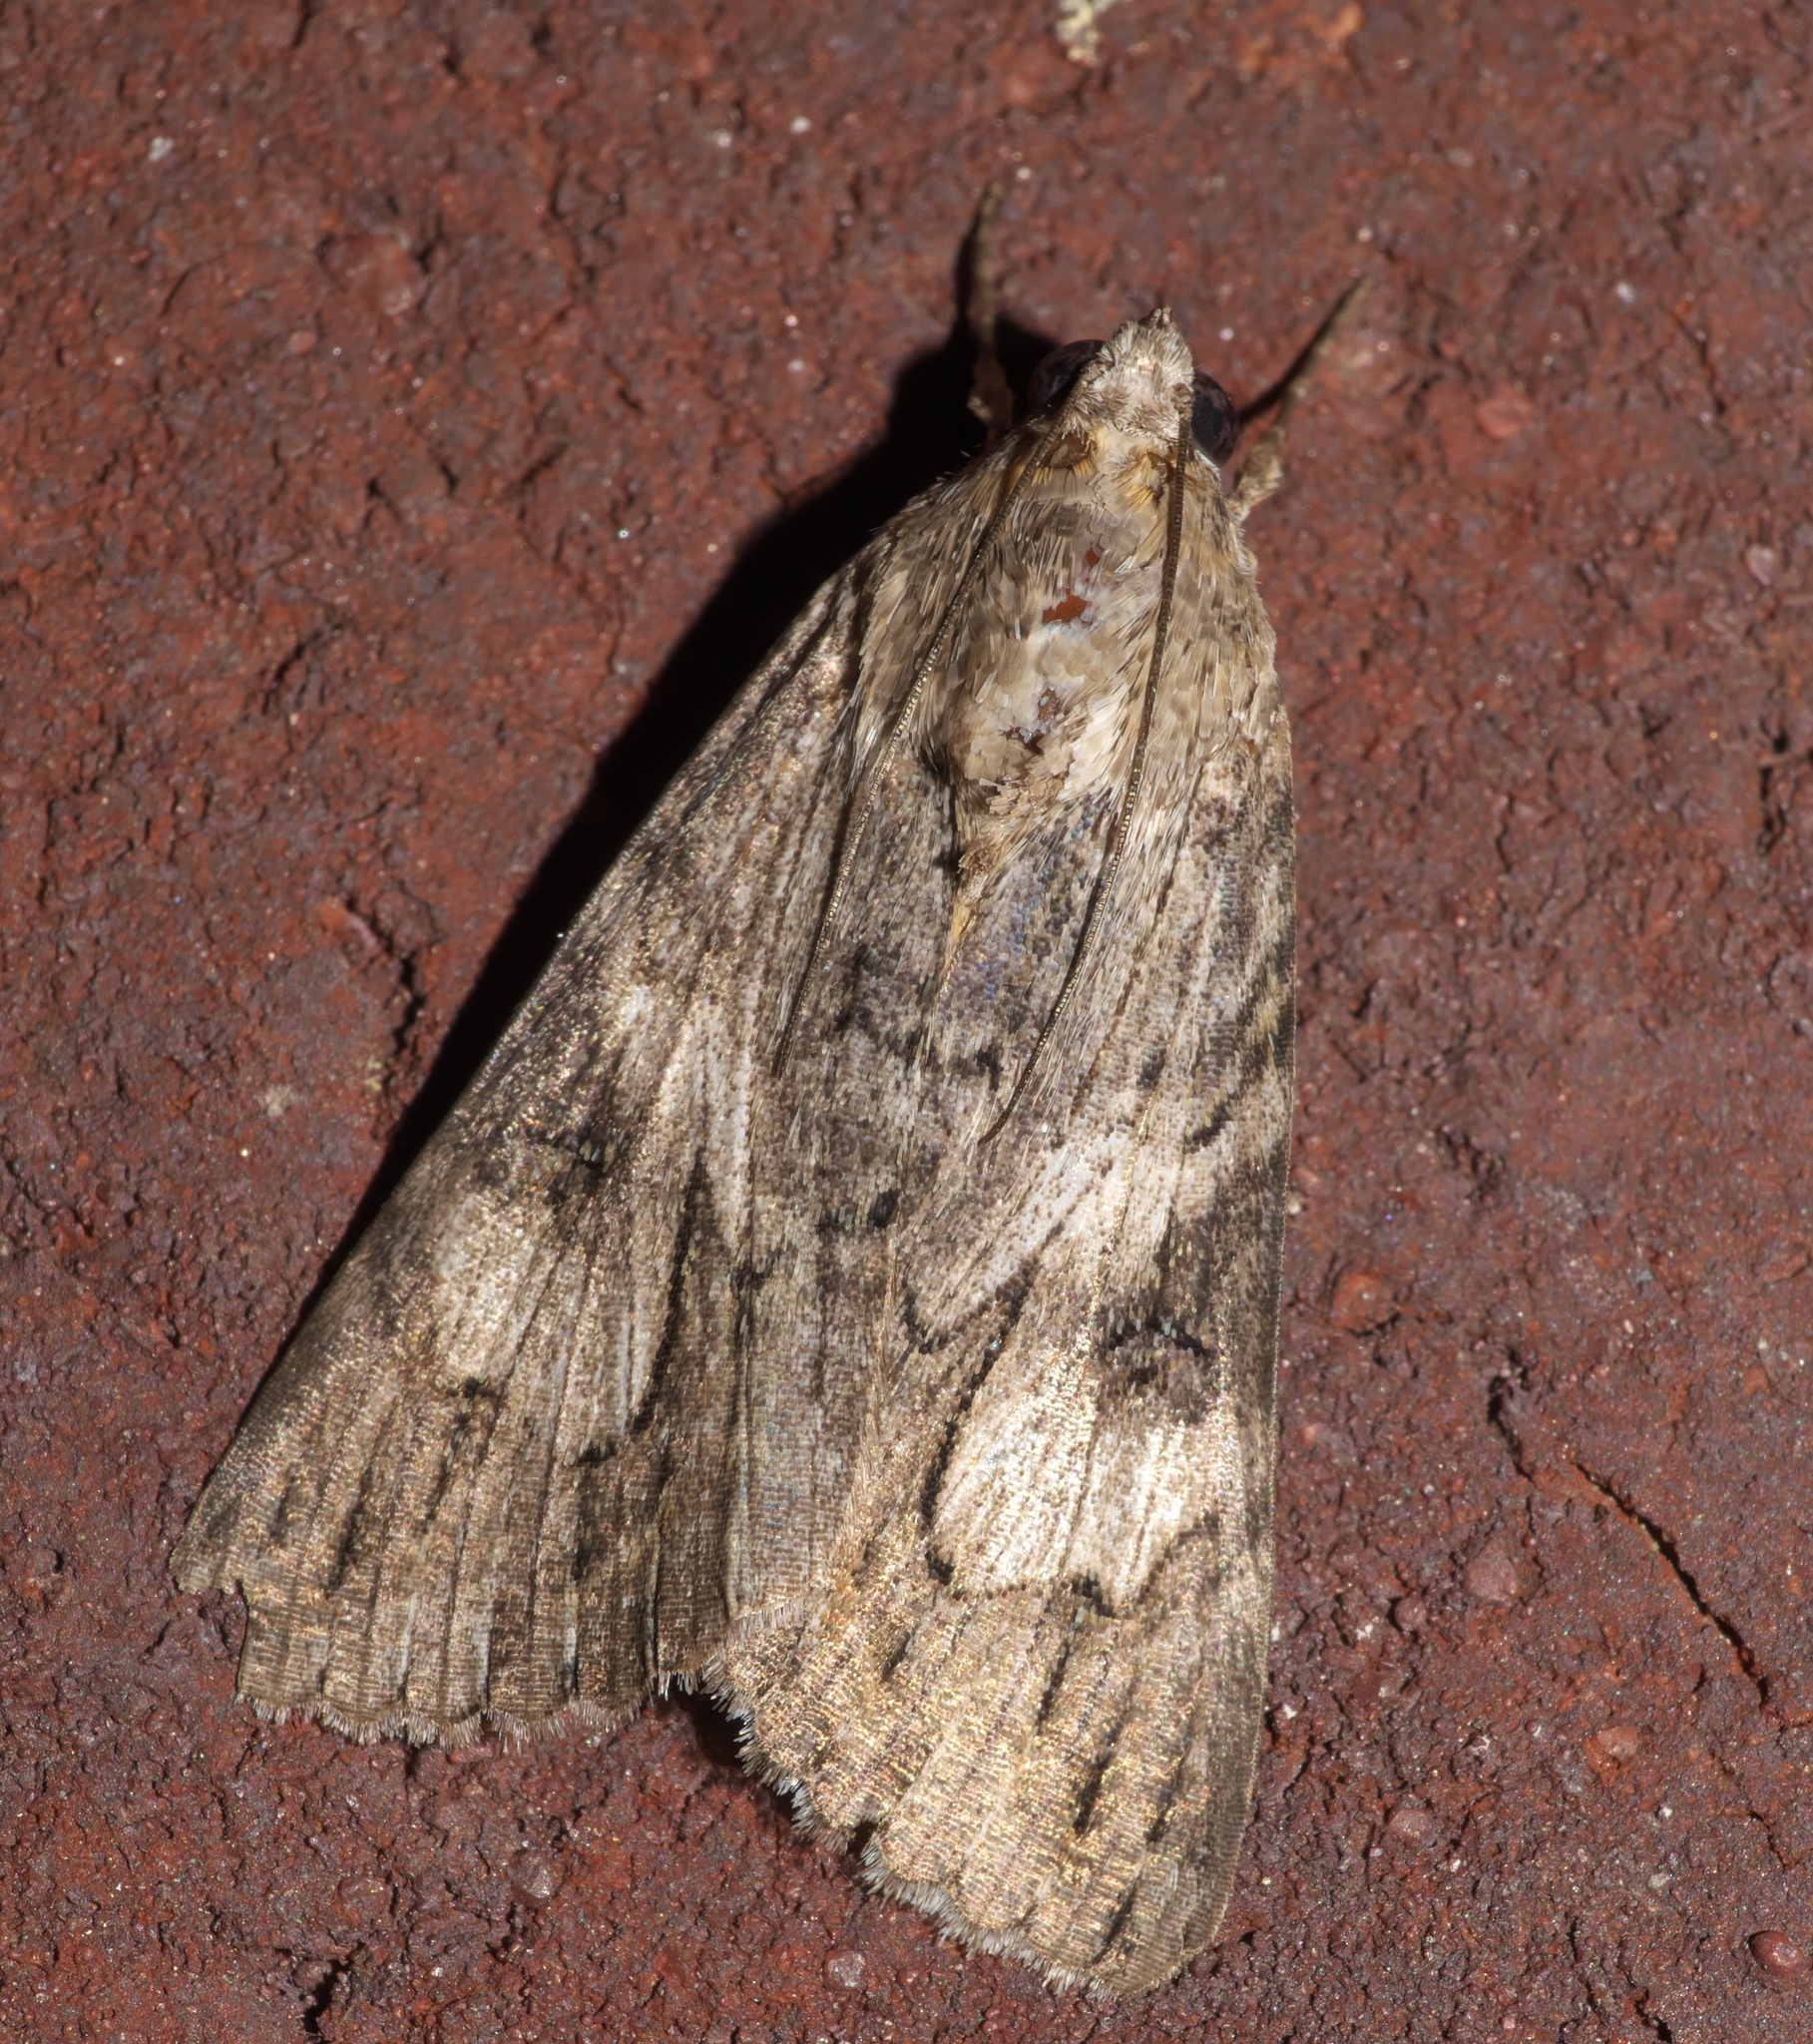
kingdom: Animalia
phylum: Arthropoda
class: Insecta
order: Lepidoptera
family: Erebidae
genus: Melipotis
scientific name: Melipotis jucunda
